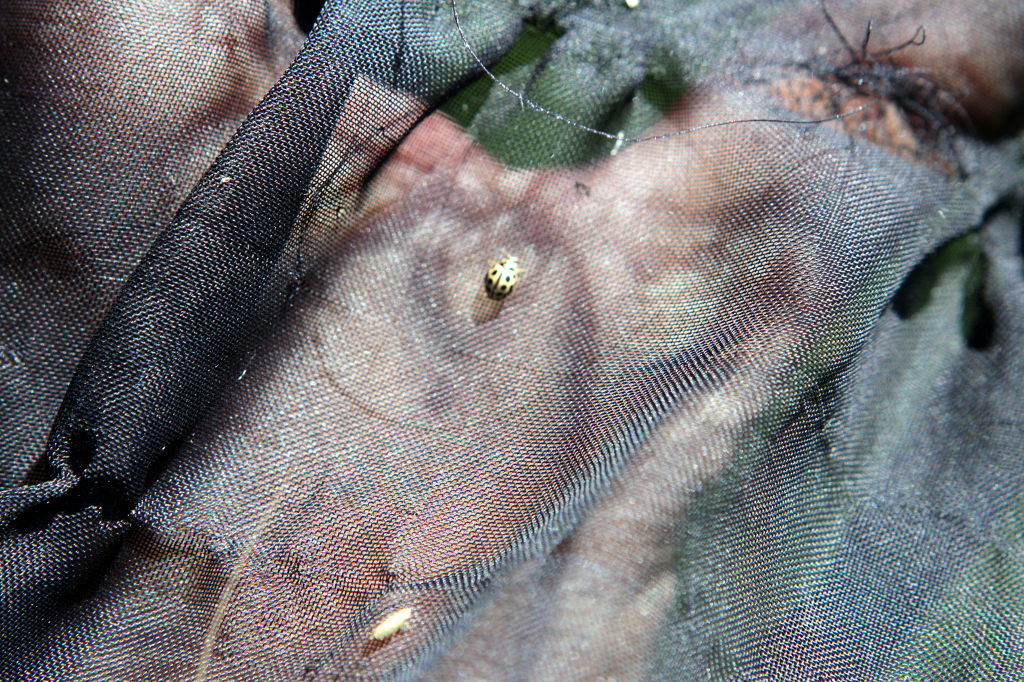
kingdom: Animalia
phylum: Arthropoda
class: Insecta
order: Coleoptera
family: Coccinellidae
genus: Tytthaspis
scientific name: Tytthaspis sedecimpunctata
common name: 16-spot ladybird
